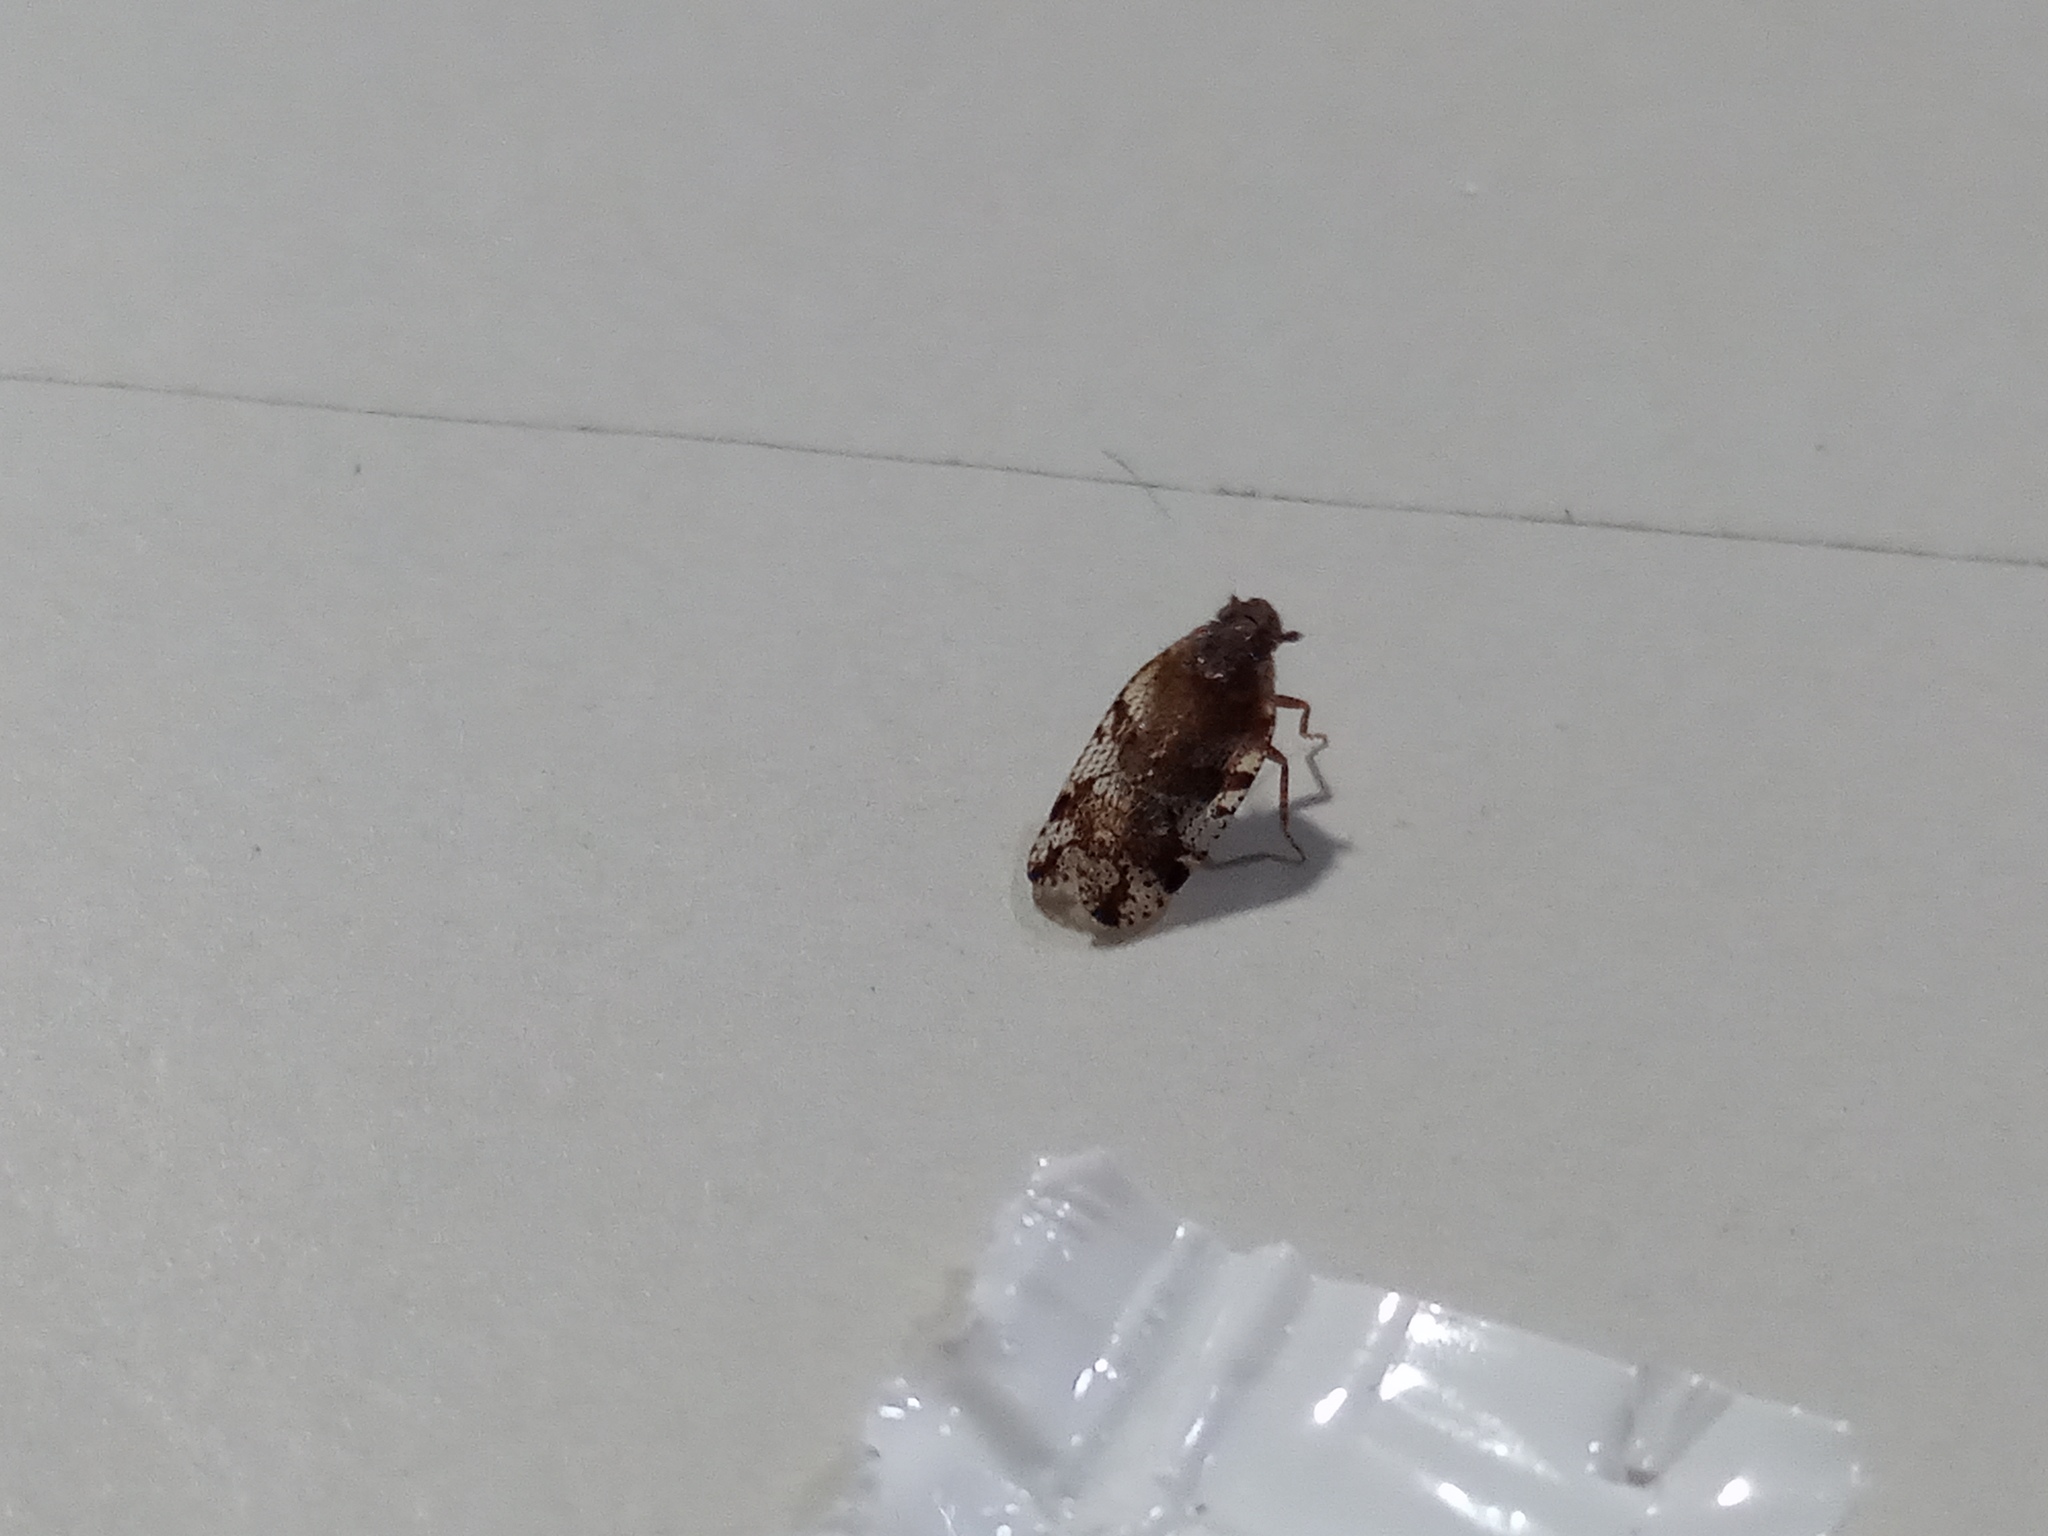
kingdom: Animalia
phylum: Arthropoda
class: Insecta
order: Hemiptera
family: Cixiidae
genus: Cixiosoma
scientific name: Cixiosoma bonaerense
